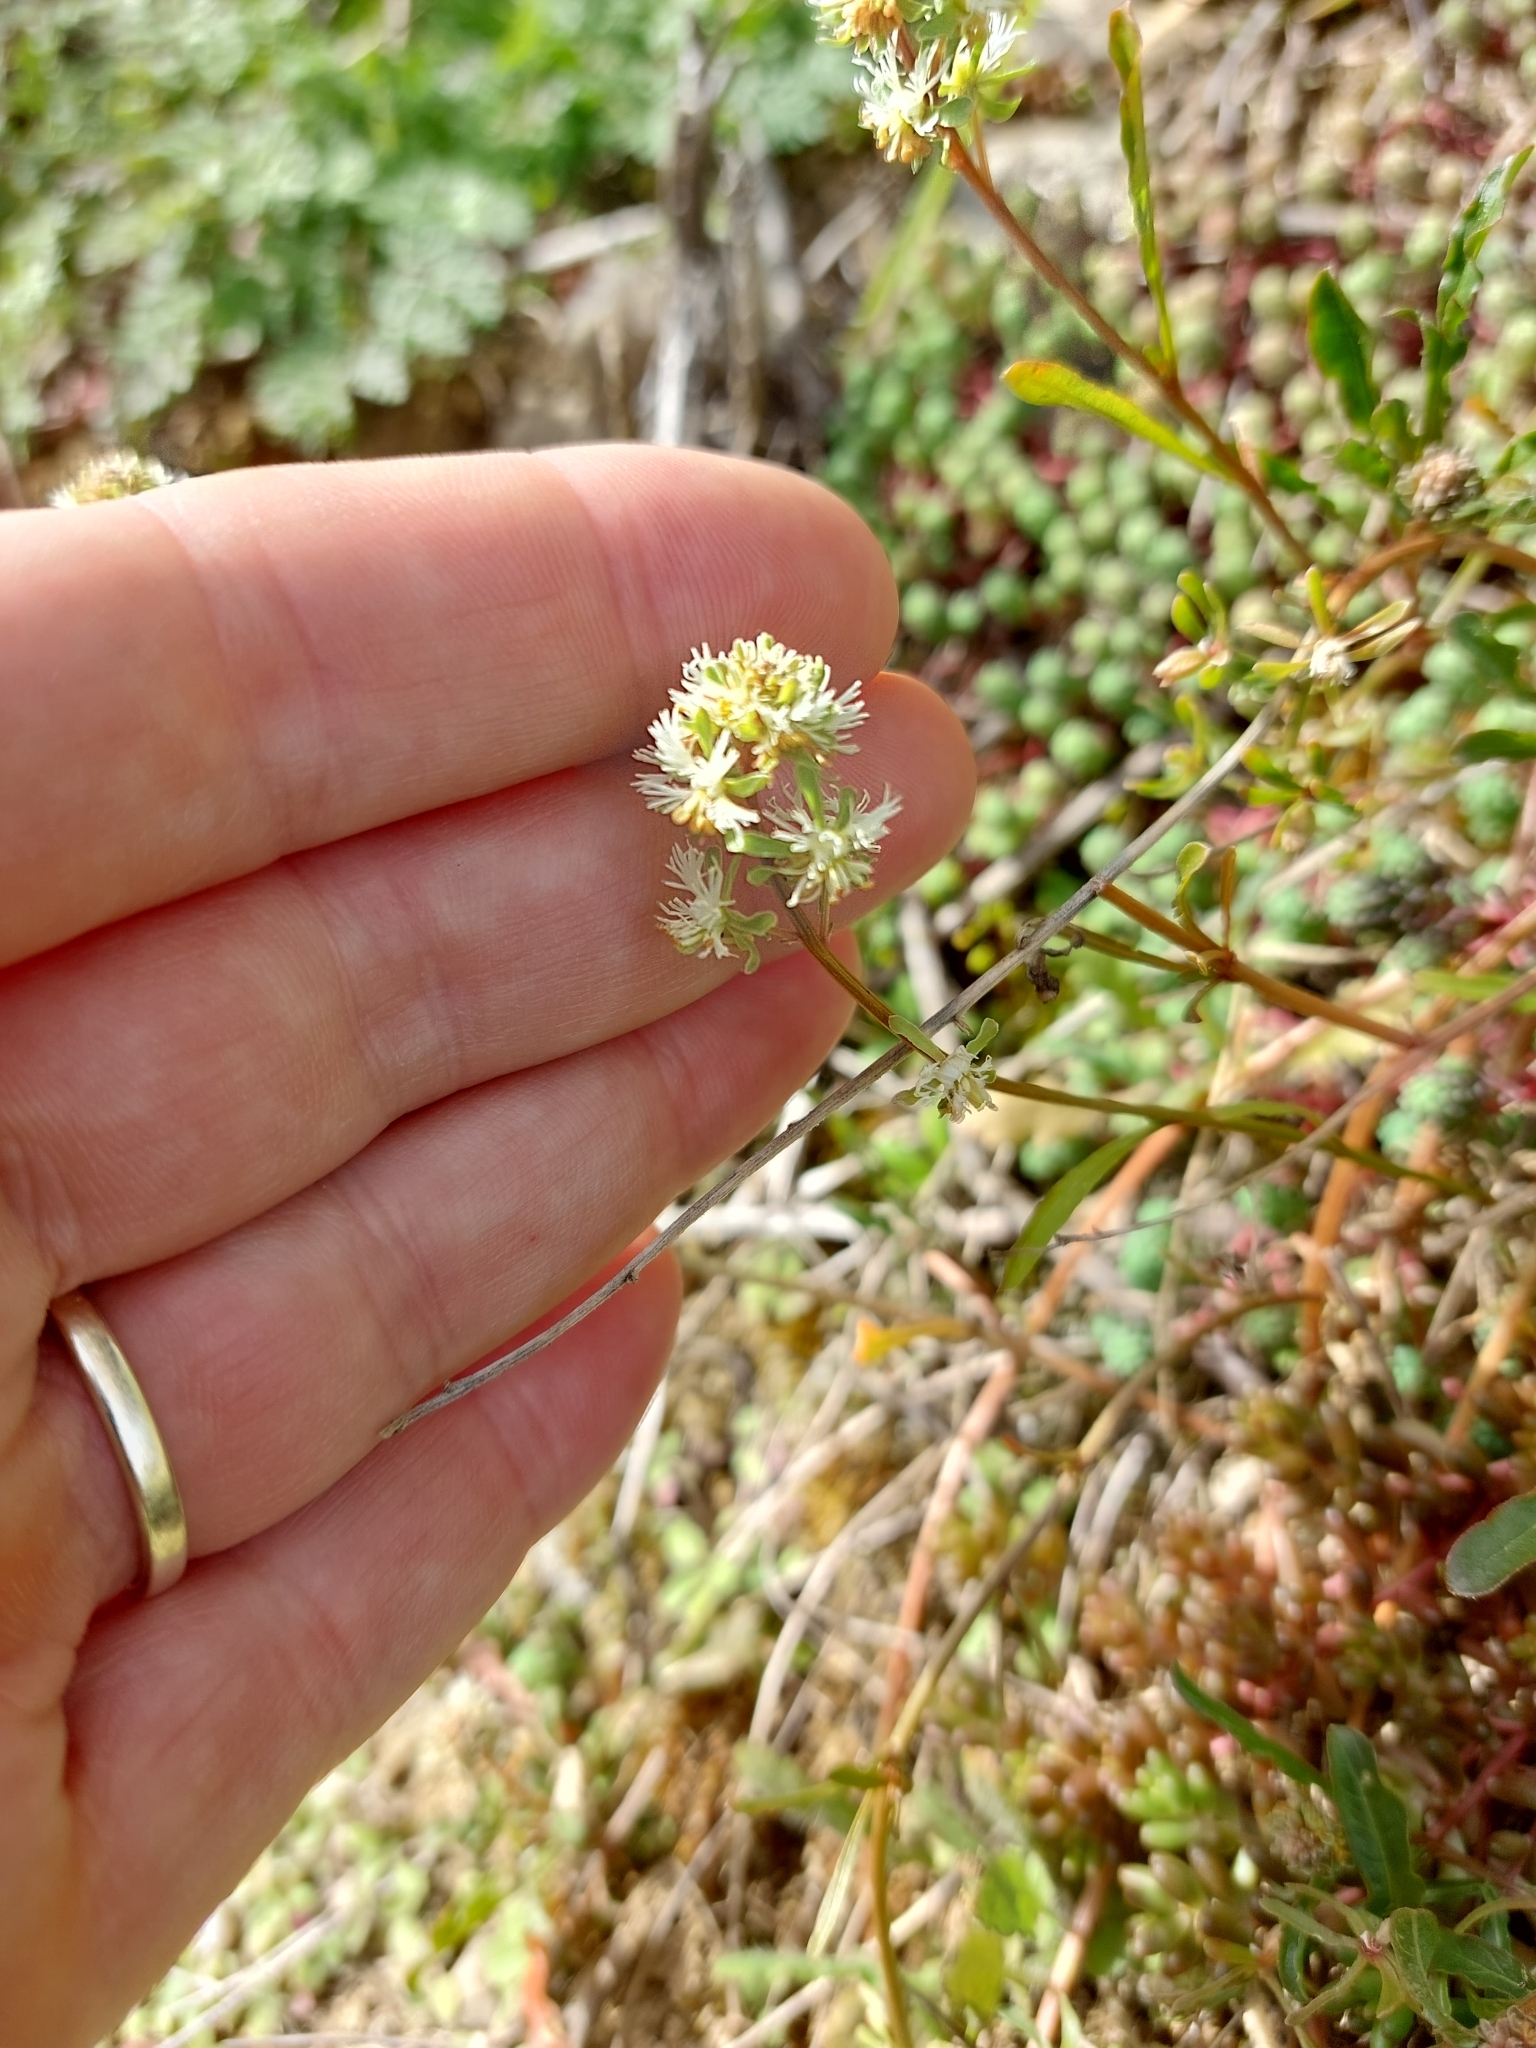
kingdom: Plantae
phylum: Tracheophyta
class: Magnoliopsida
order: Brassicales
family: Resedaceae
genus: Reseda
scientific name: Reseda phyteuma
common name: Corn mignonette
